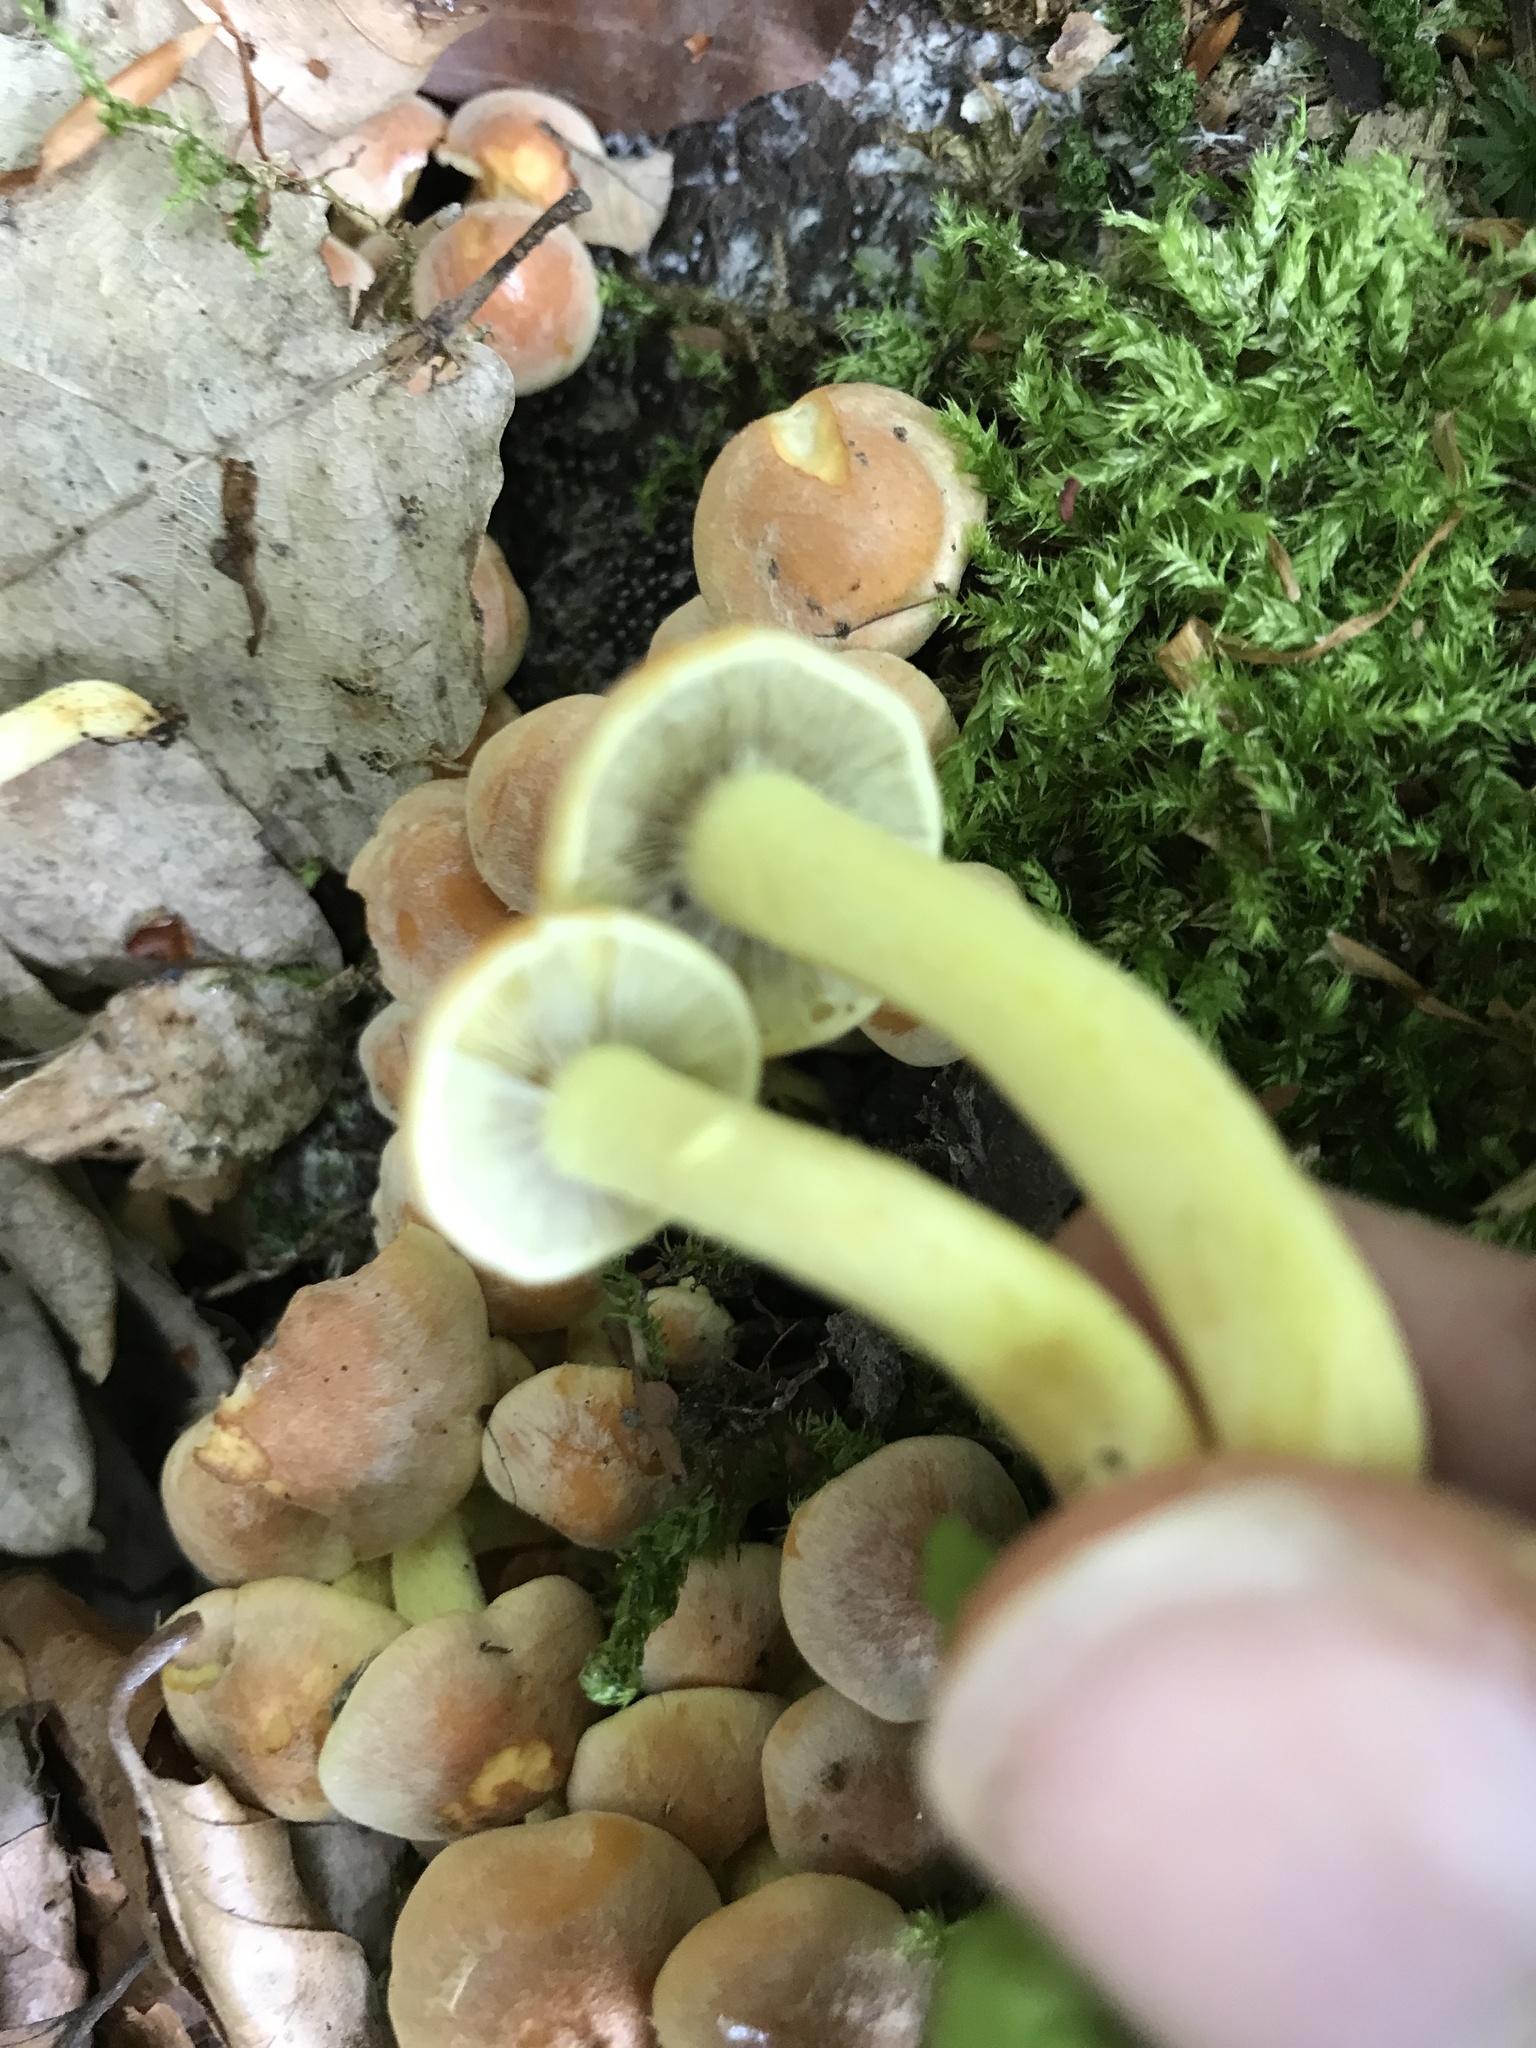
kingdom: Fungi
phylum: Basidiomycota
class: Agaricomycetes
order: Agaricales
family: Strophariaceae
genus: Hypholoma
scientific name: Hypholoma fasciculare
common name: Sulphur tuft
